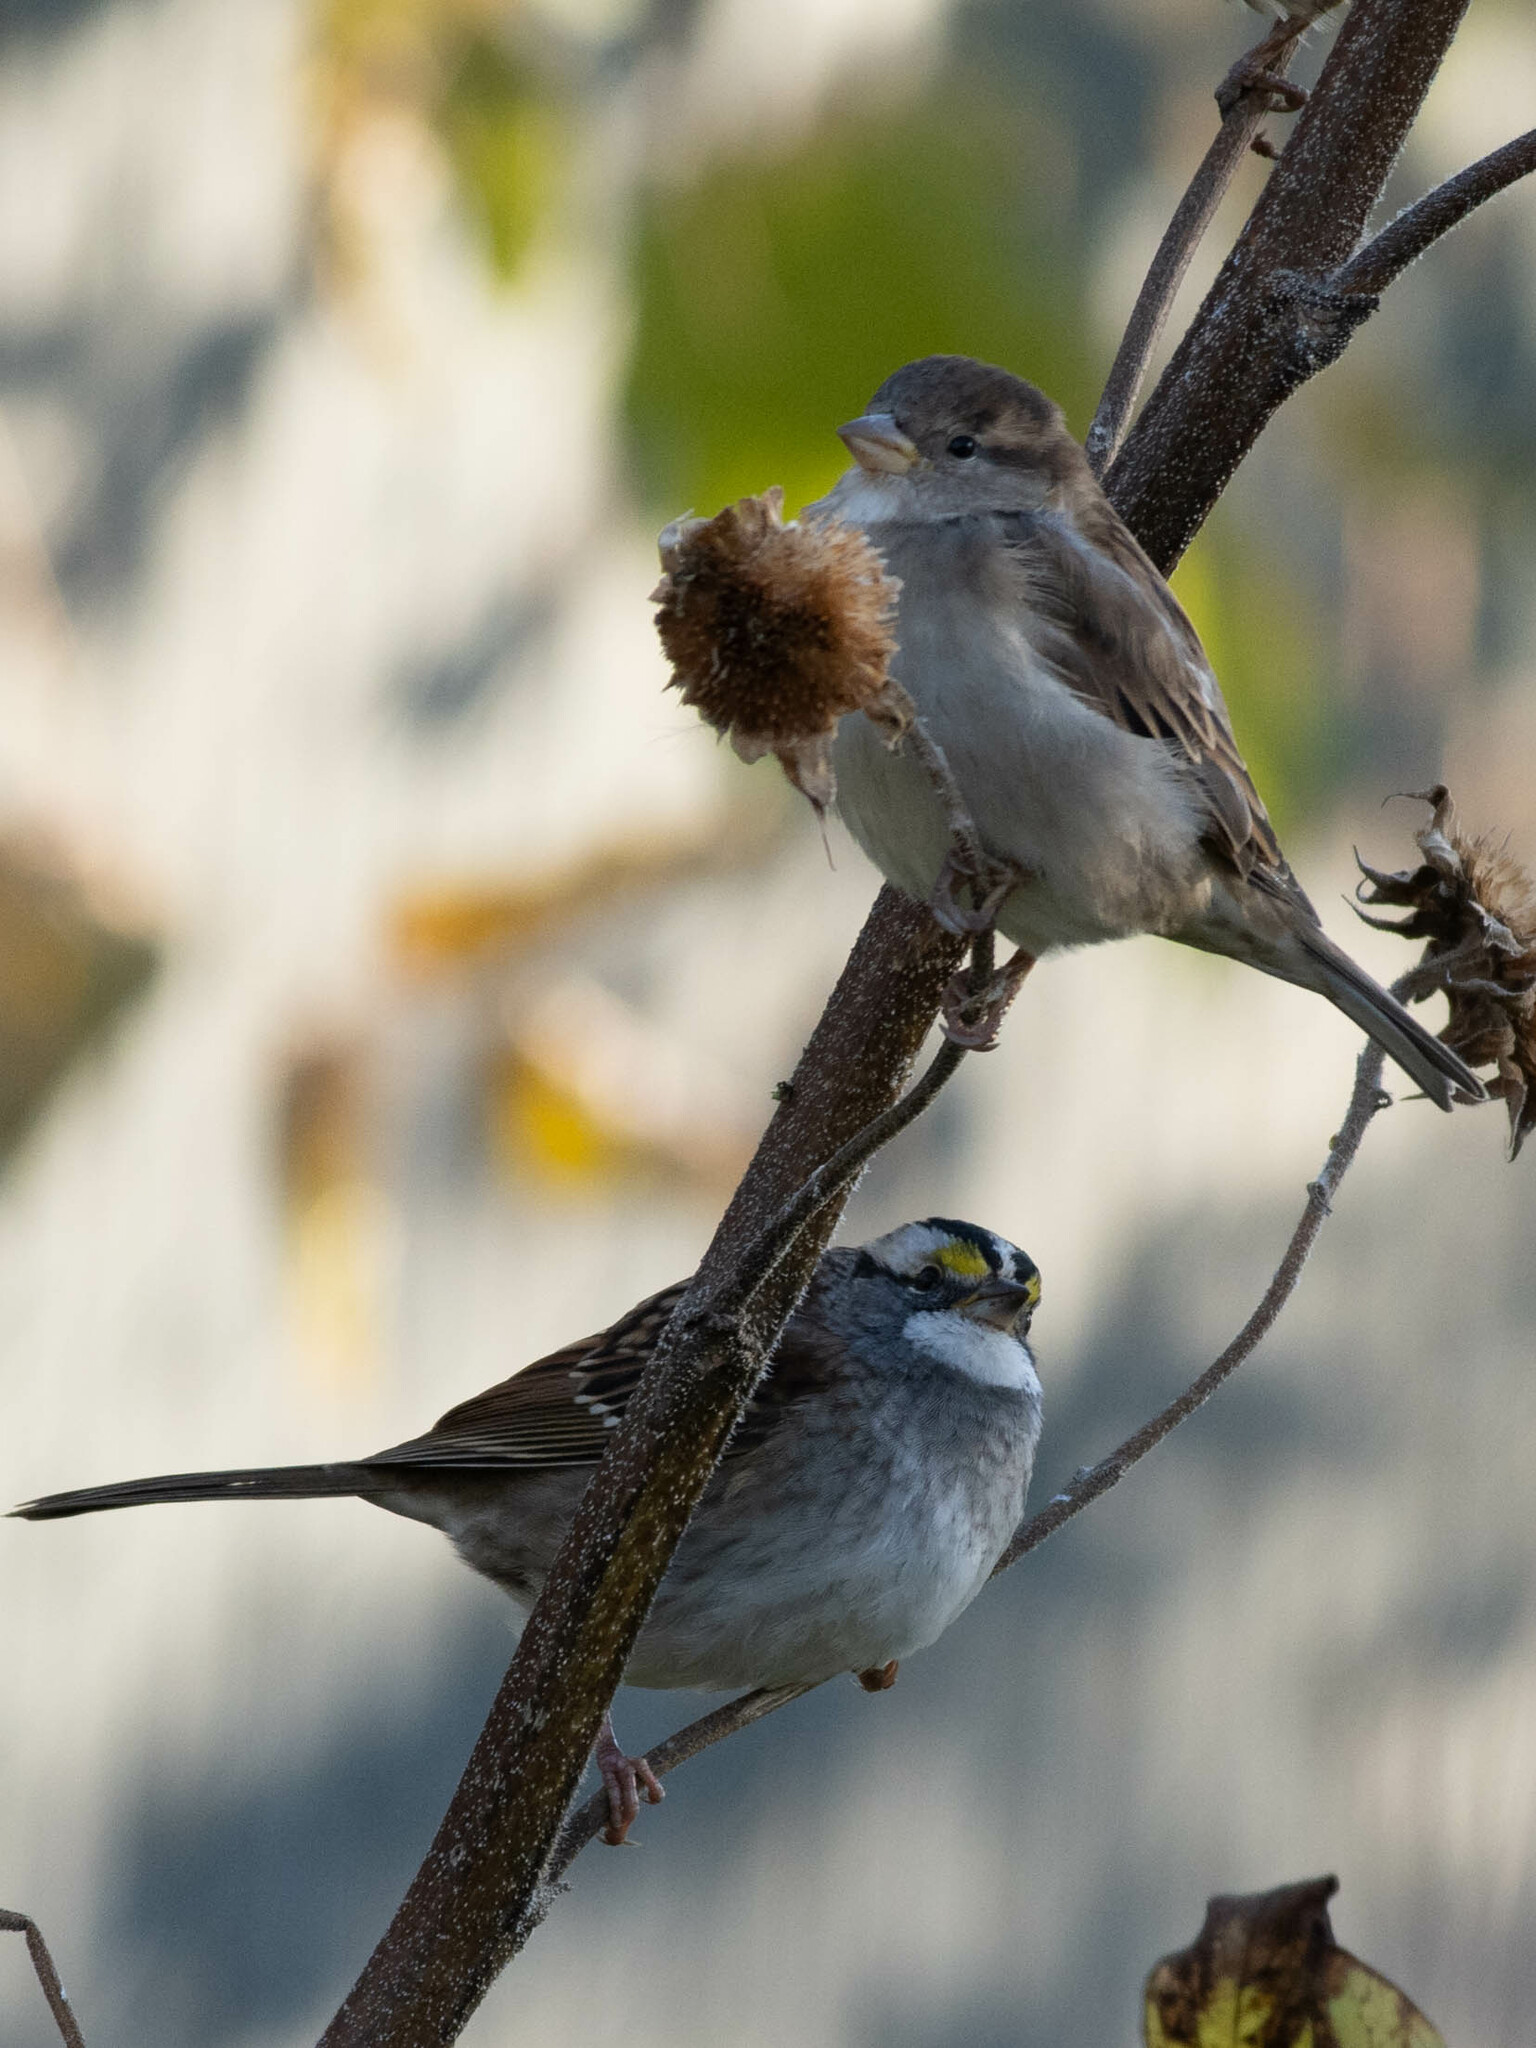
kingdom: Animalia
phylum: Chordata
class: Aves
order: Passeriformes
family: Passerellidae
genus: Zonotrichia
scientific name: Zonotrichia albicollis
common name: White-throated sparrow
